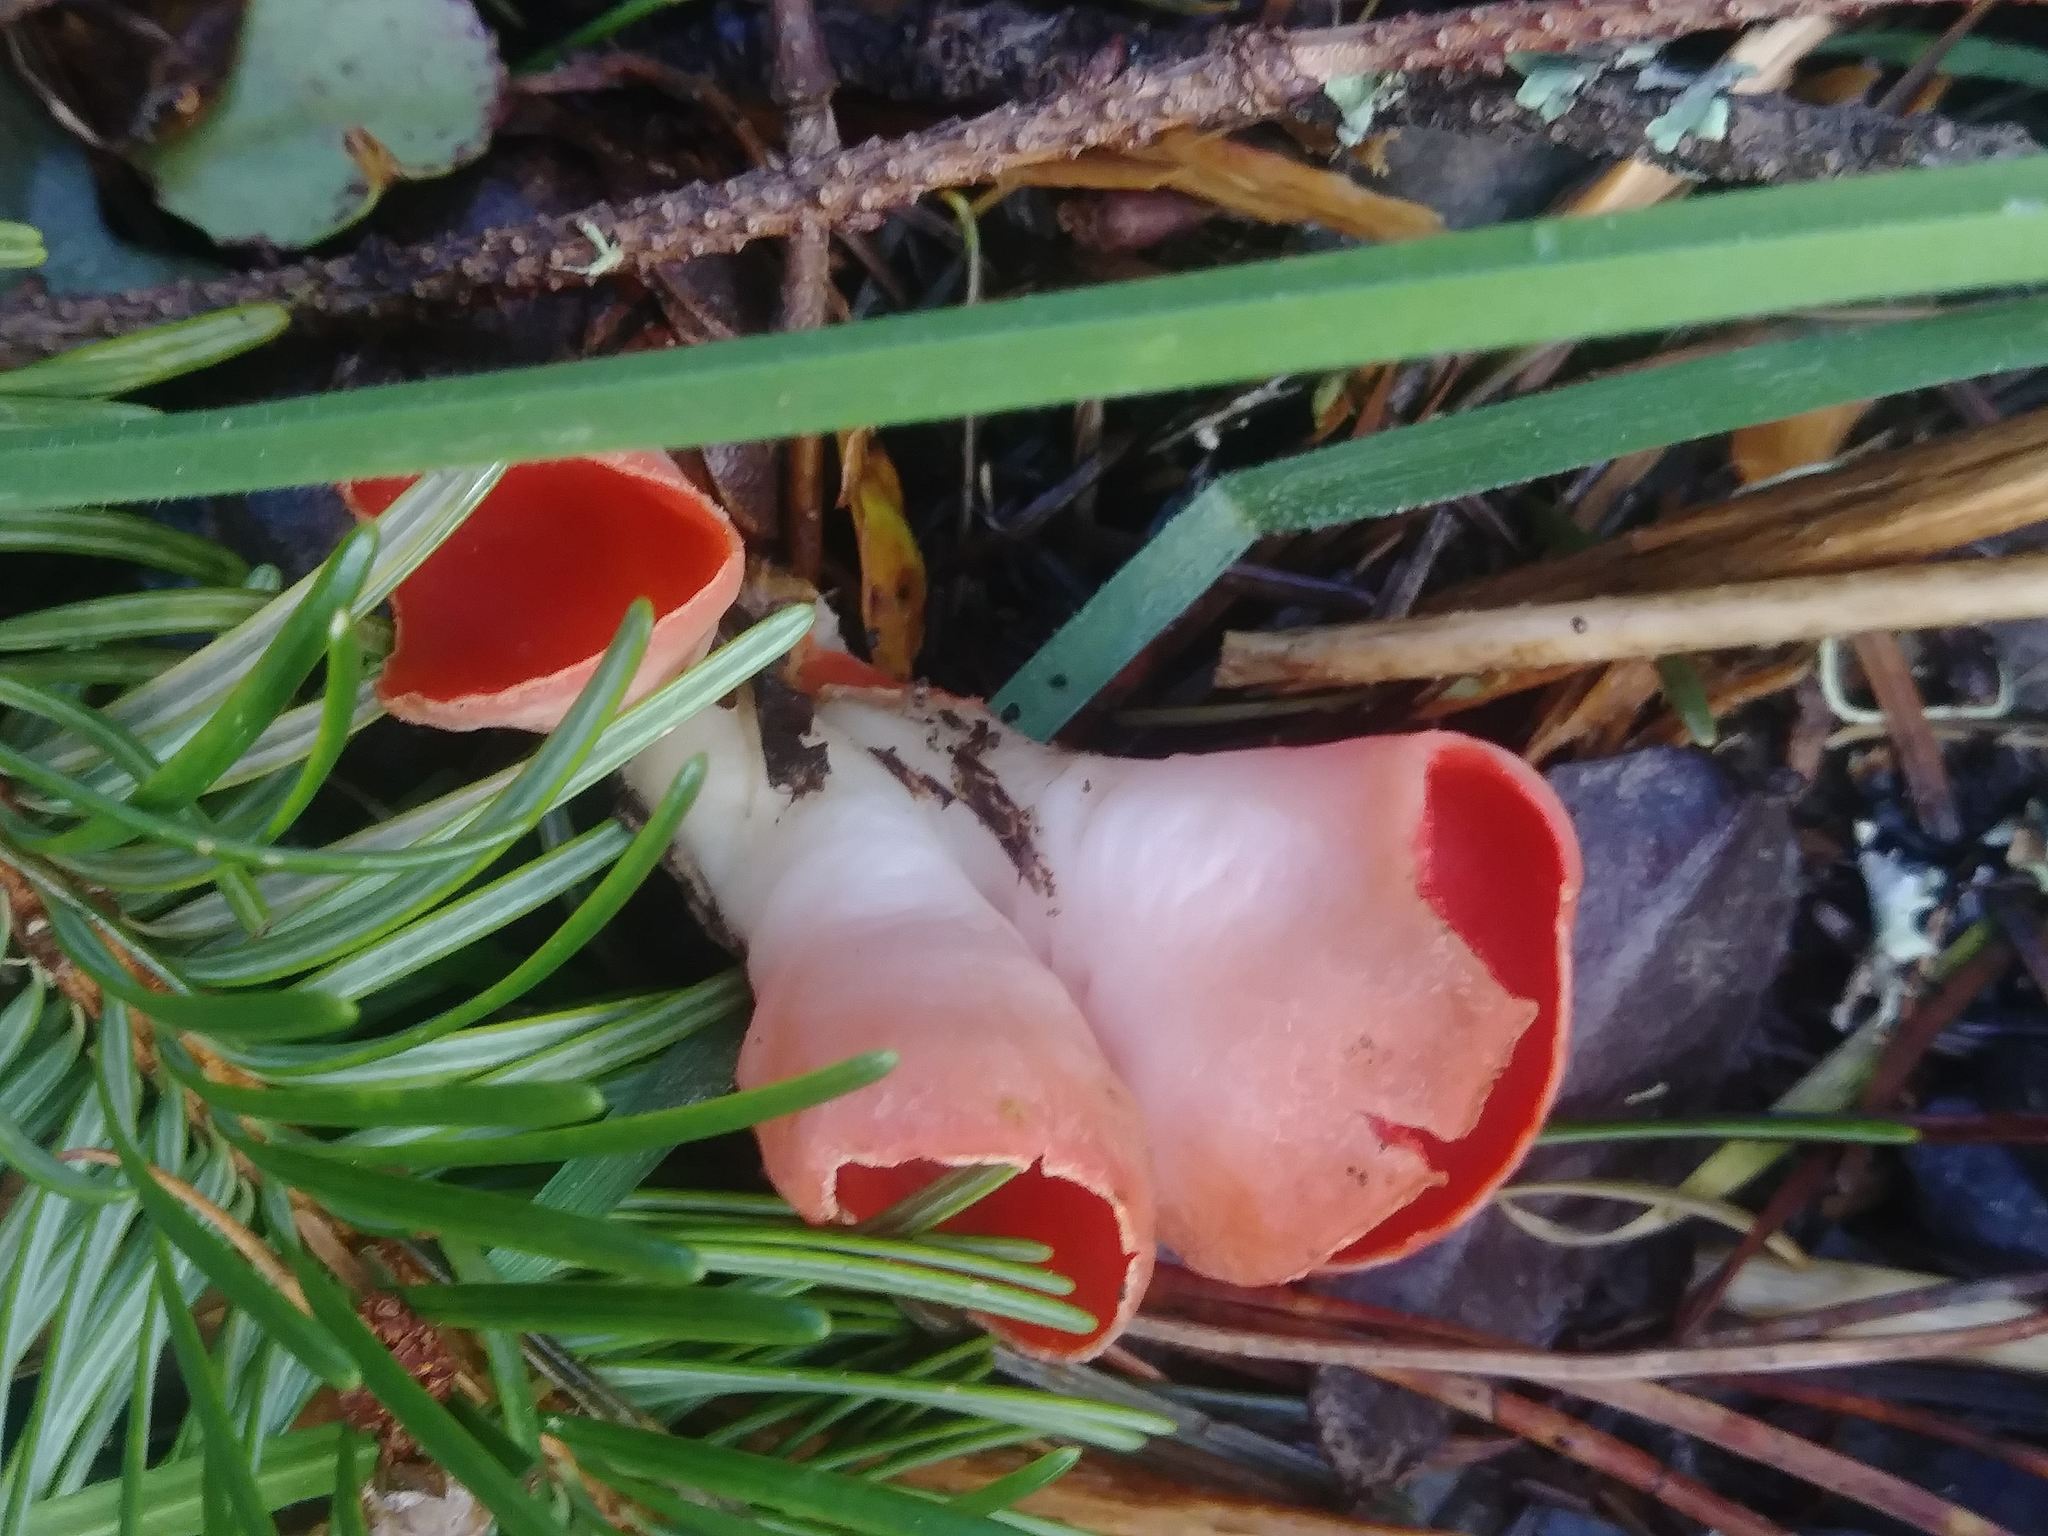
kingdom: Fungi
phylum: Ascomycota
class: Pezizomycetes
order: Pezizales
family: Sarcoscyphaceae
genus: Sarcoscypha
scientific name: Sarcoscypha coccinea
